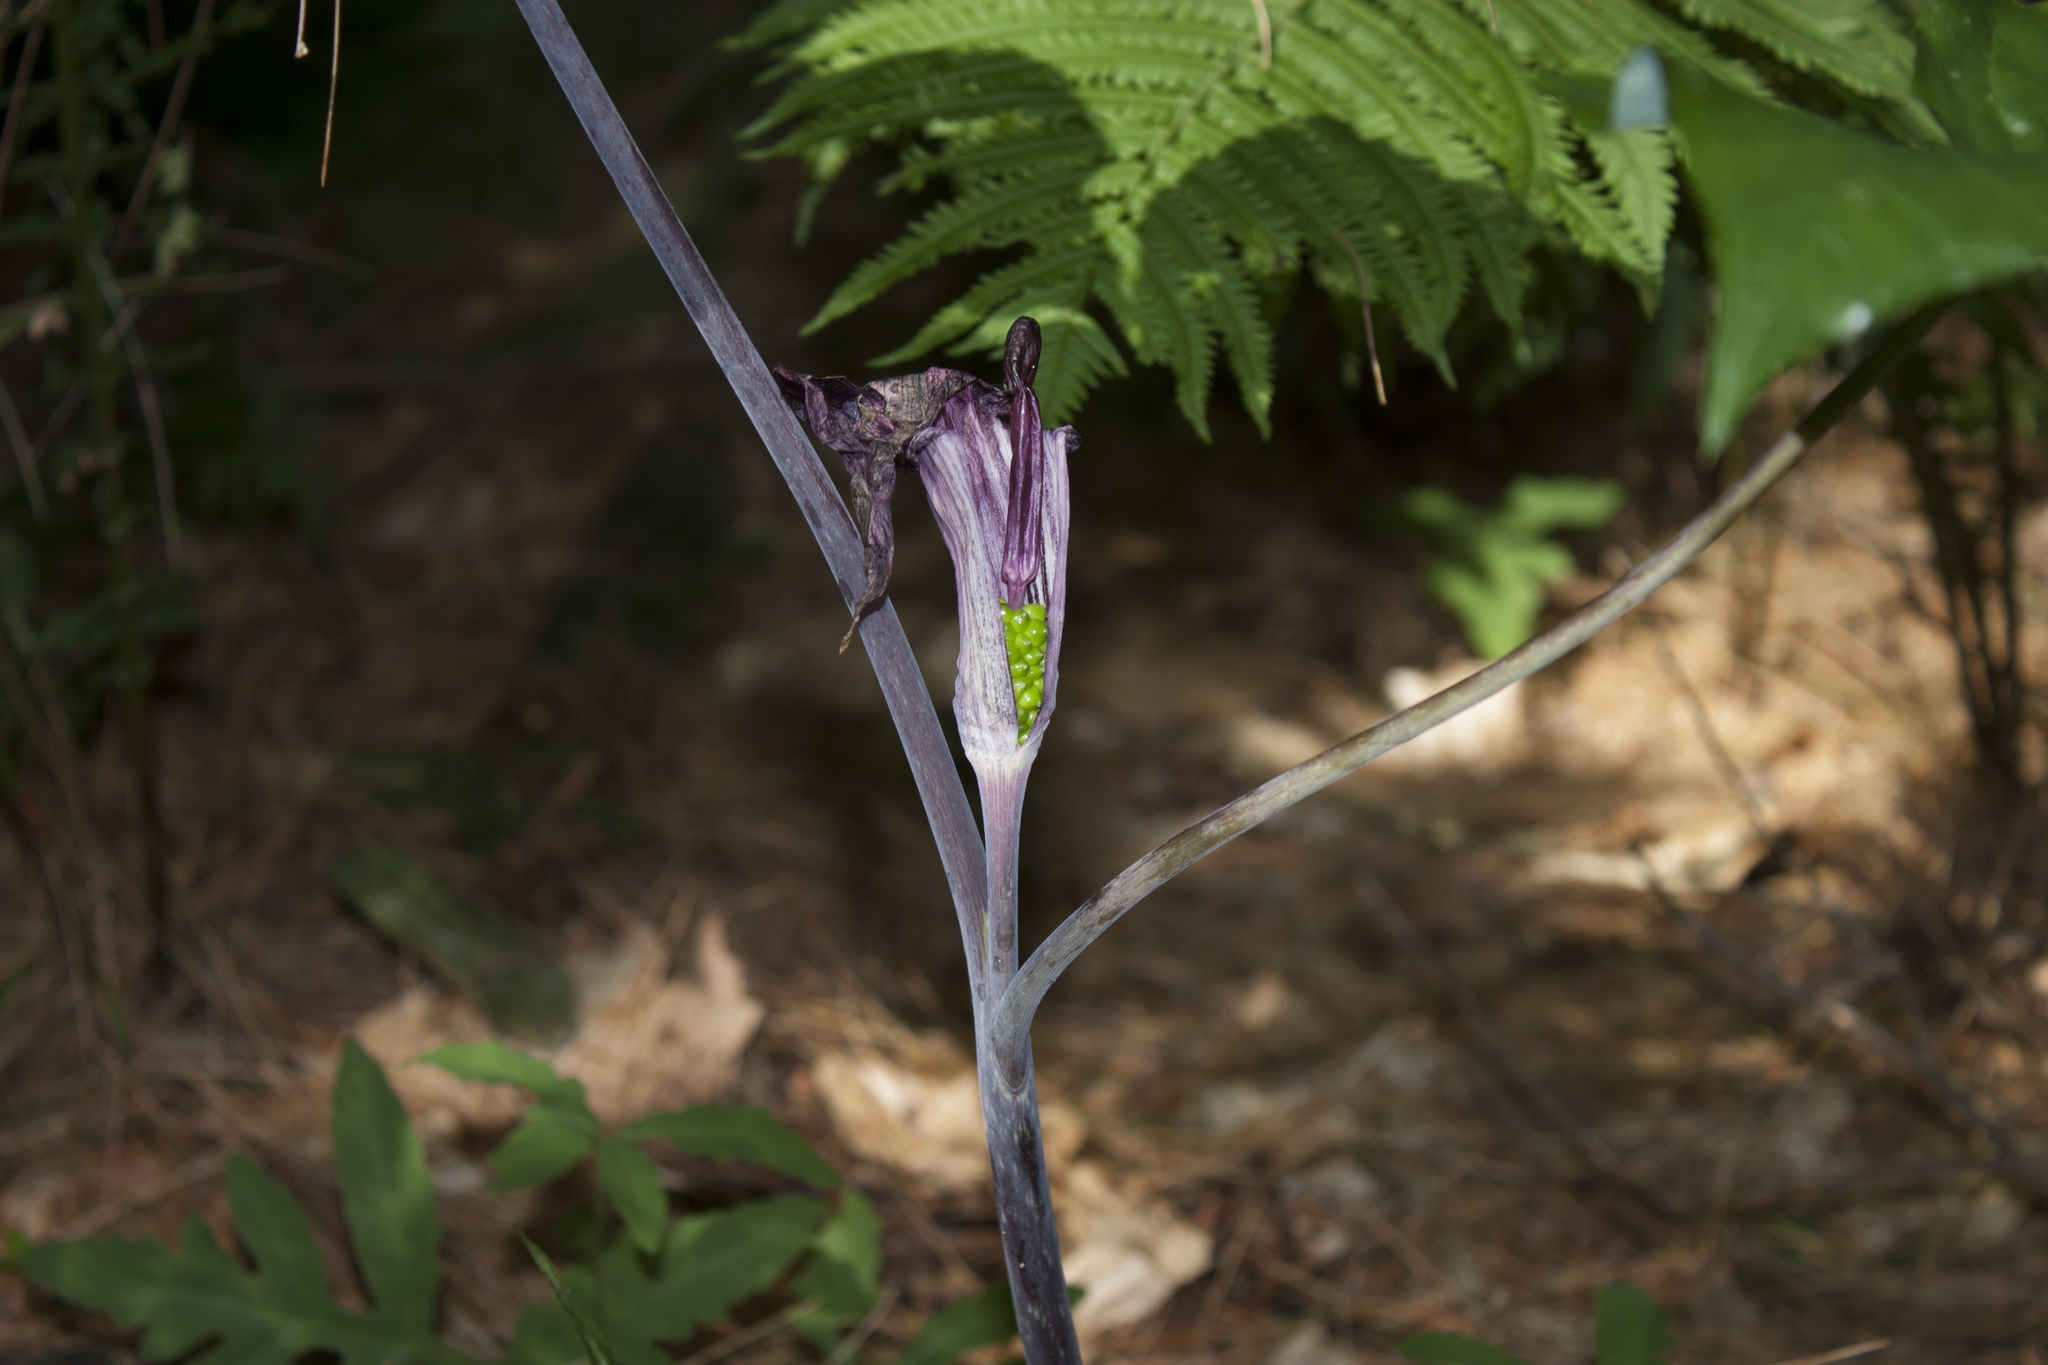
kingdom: Plantae
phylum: Tracheophyta
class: Liliopsida
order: Alismatales
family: Araceae
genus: Arisaema
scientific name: Arisaema triphyllum
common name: Jack-in-the-pulpit
